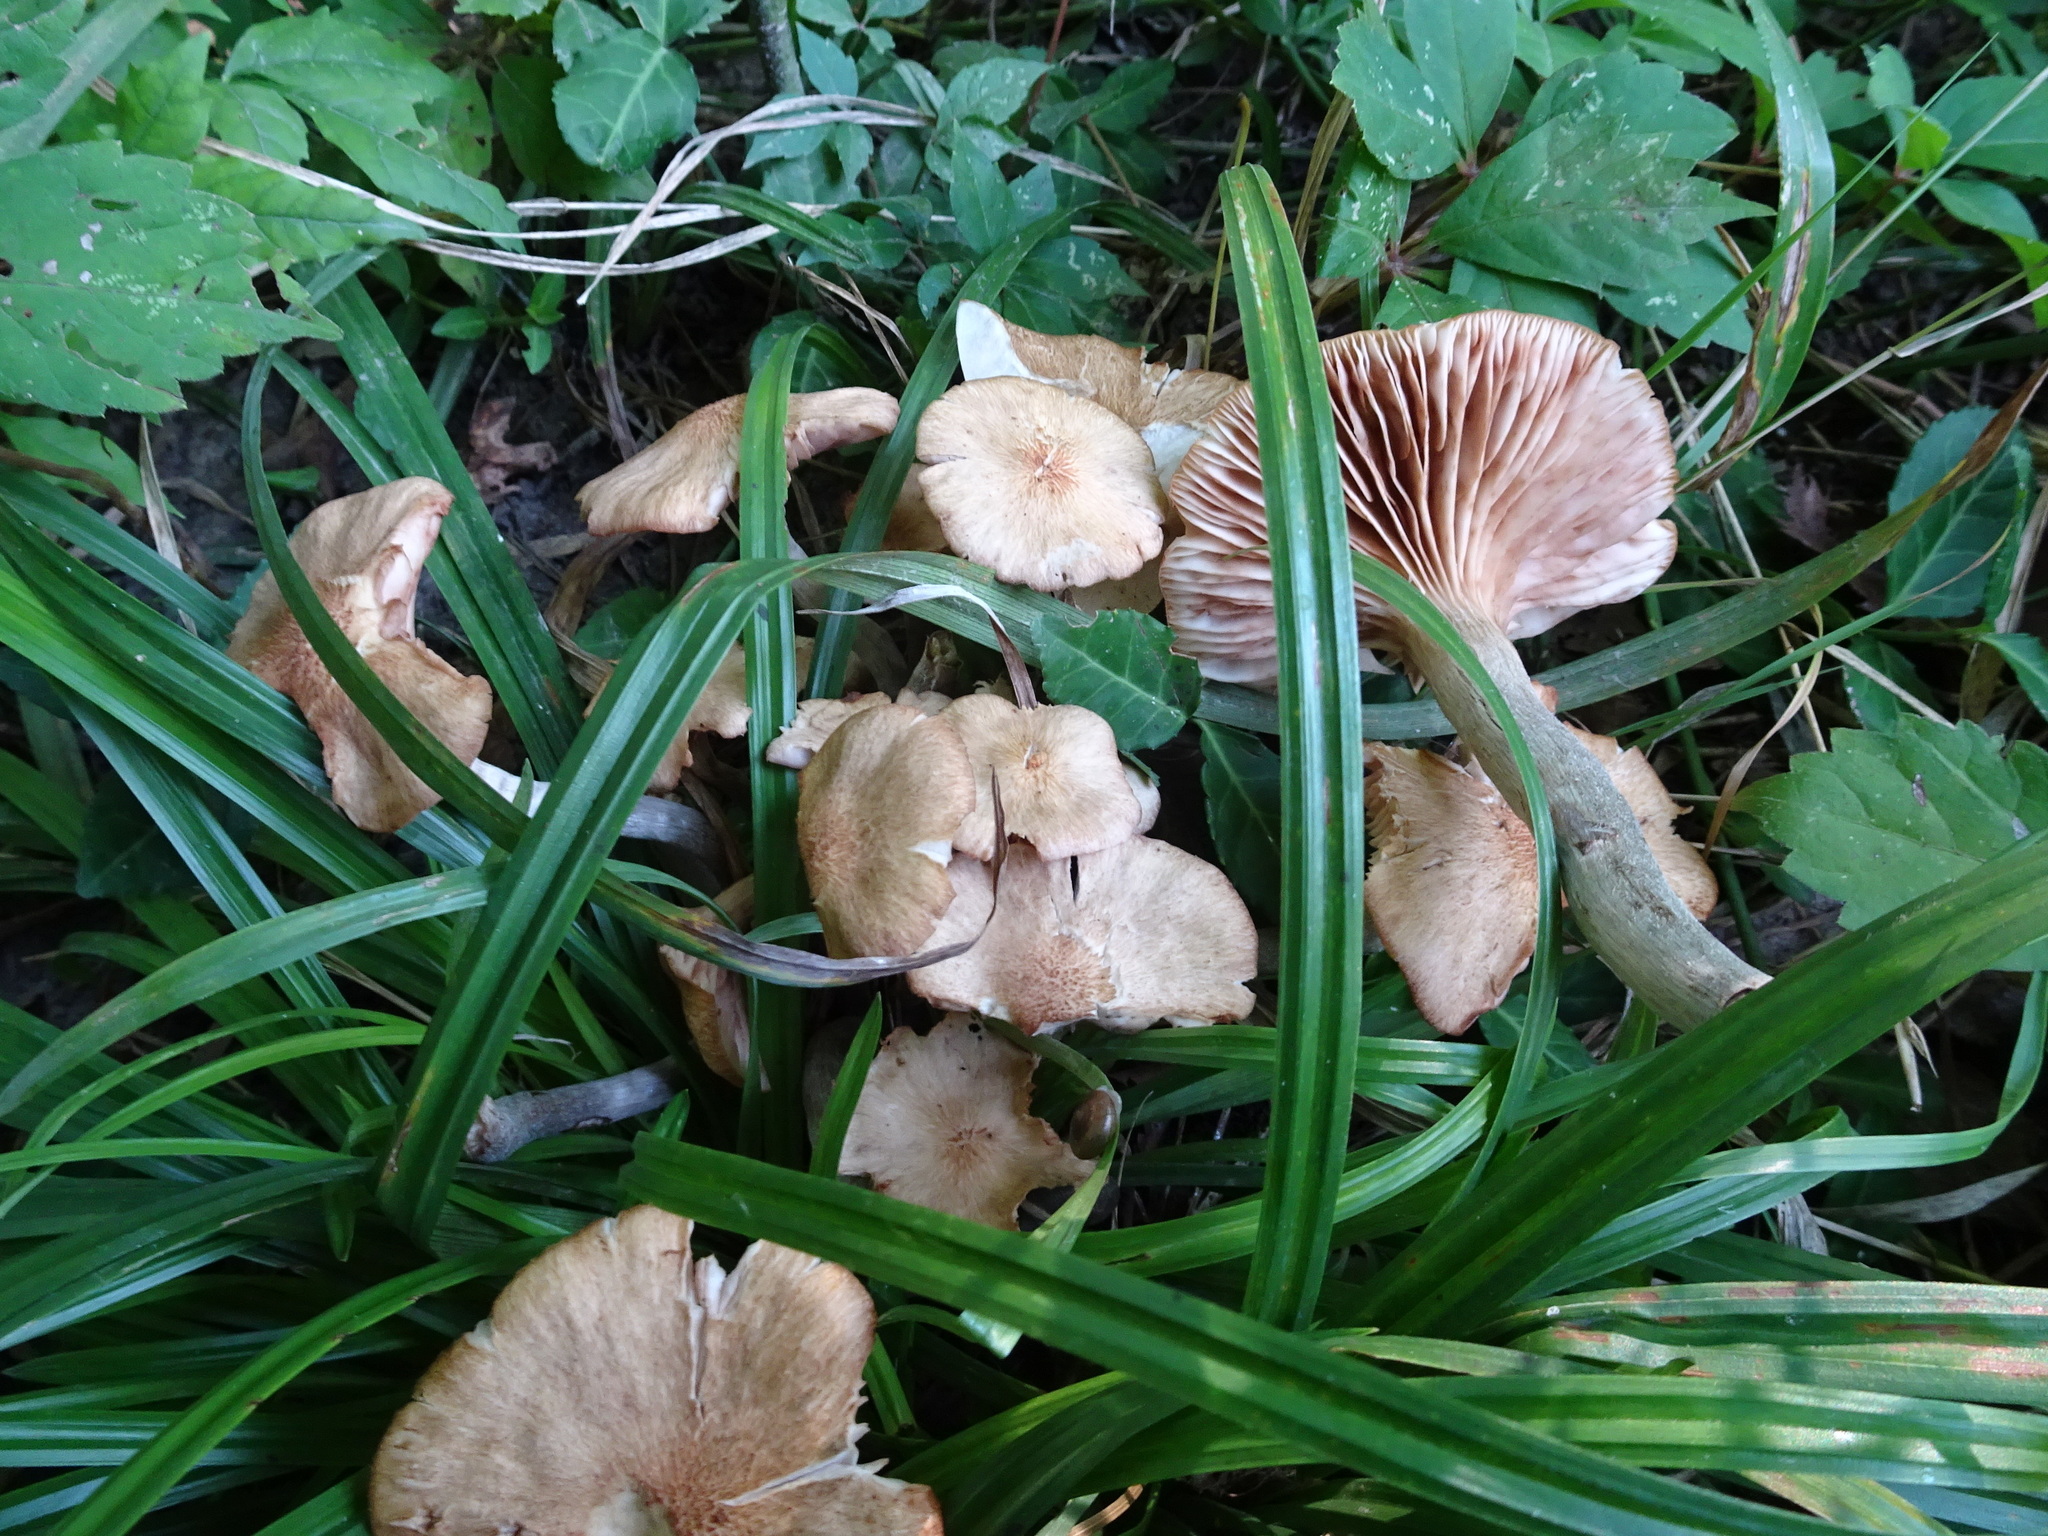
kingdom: Fungi
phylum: Basidiomycota
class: Agaricomycetes
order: Agaricales
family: Physalacriaceae
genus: Desarmillaria
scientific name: Desarmillaria caespitosa
